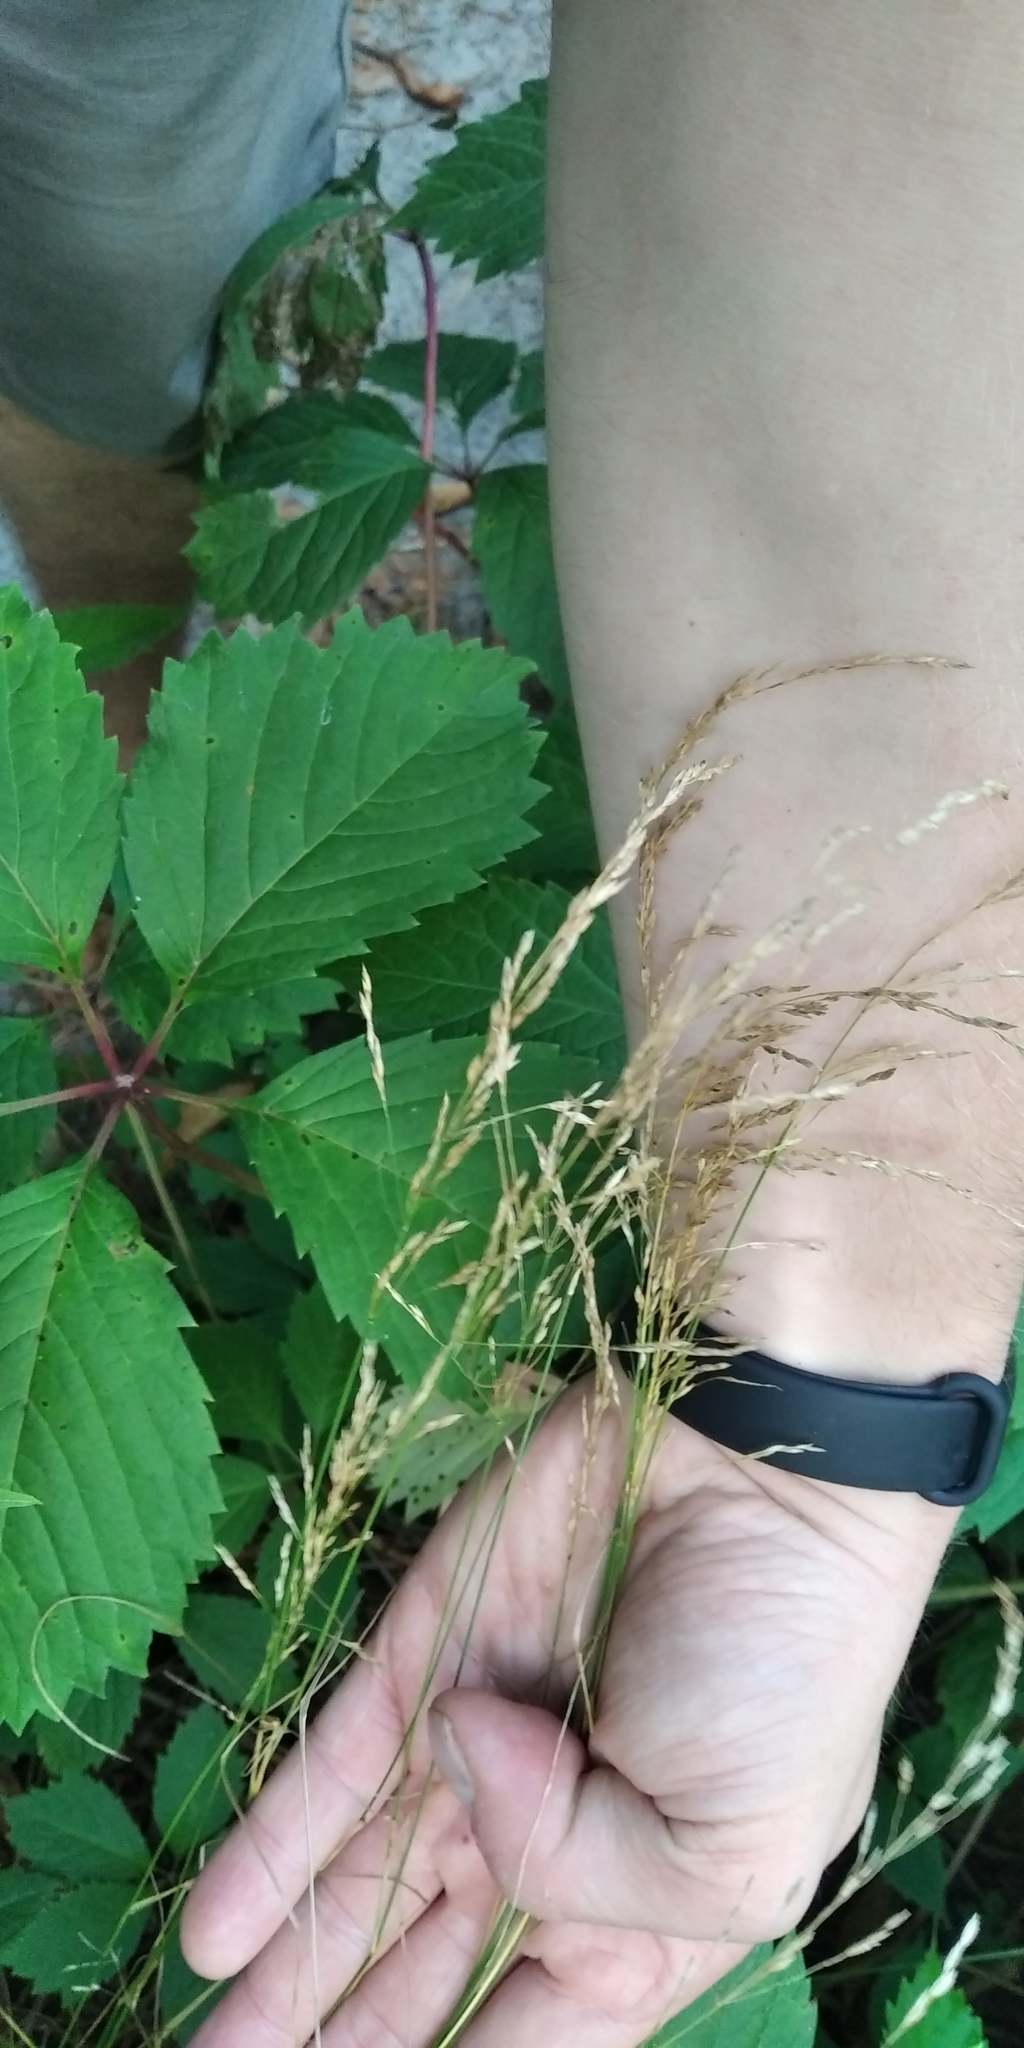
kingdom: Plantae
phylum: Tracheophyta
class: Liliopsida
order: Poales
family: Poaceae
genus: Poa
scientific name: Poa nemoralis
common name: Wood bluegrass
